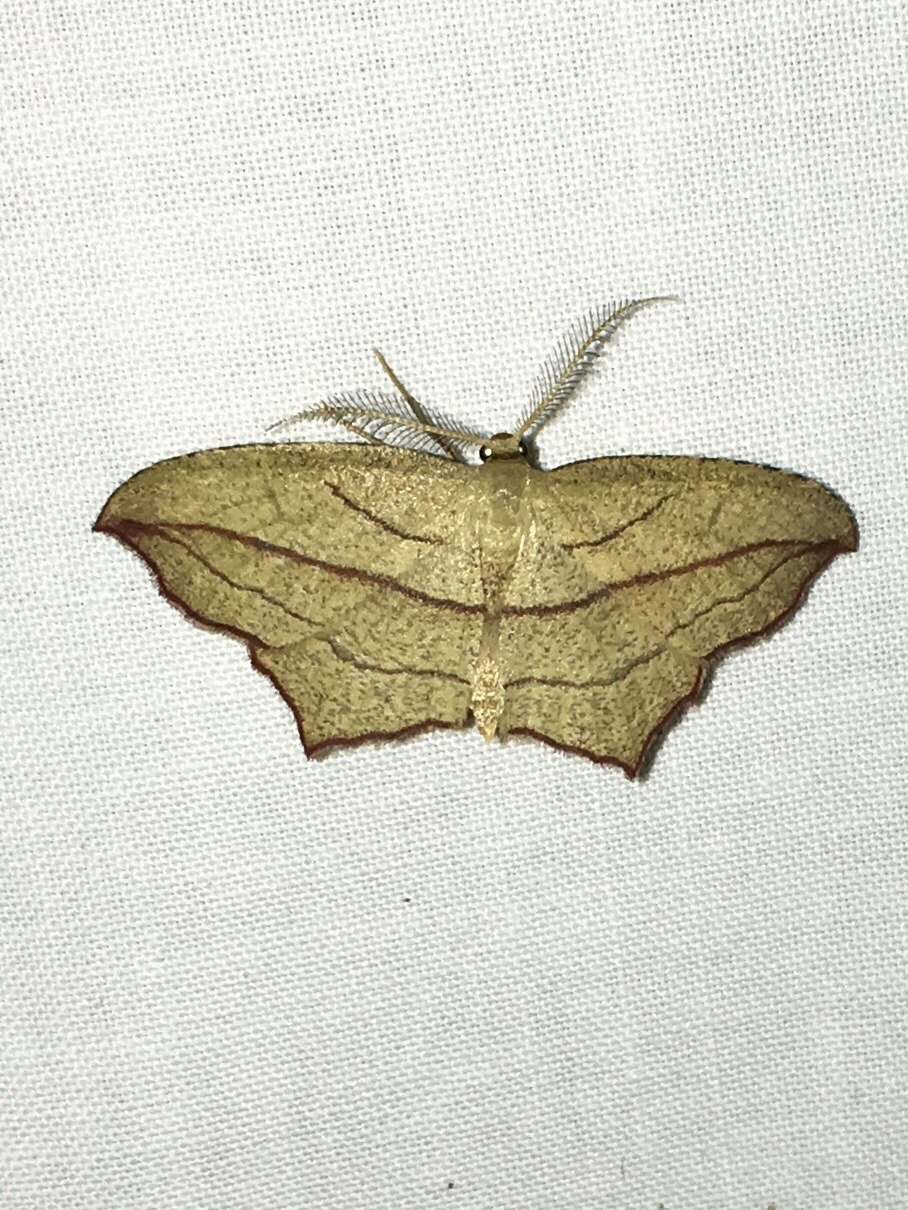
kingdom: Animalia
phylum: Arthropoda
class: Insecta
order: Lepidoptera
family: Geometridae
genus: Timandra
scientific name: Timandra amaturaria
